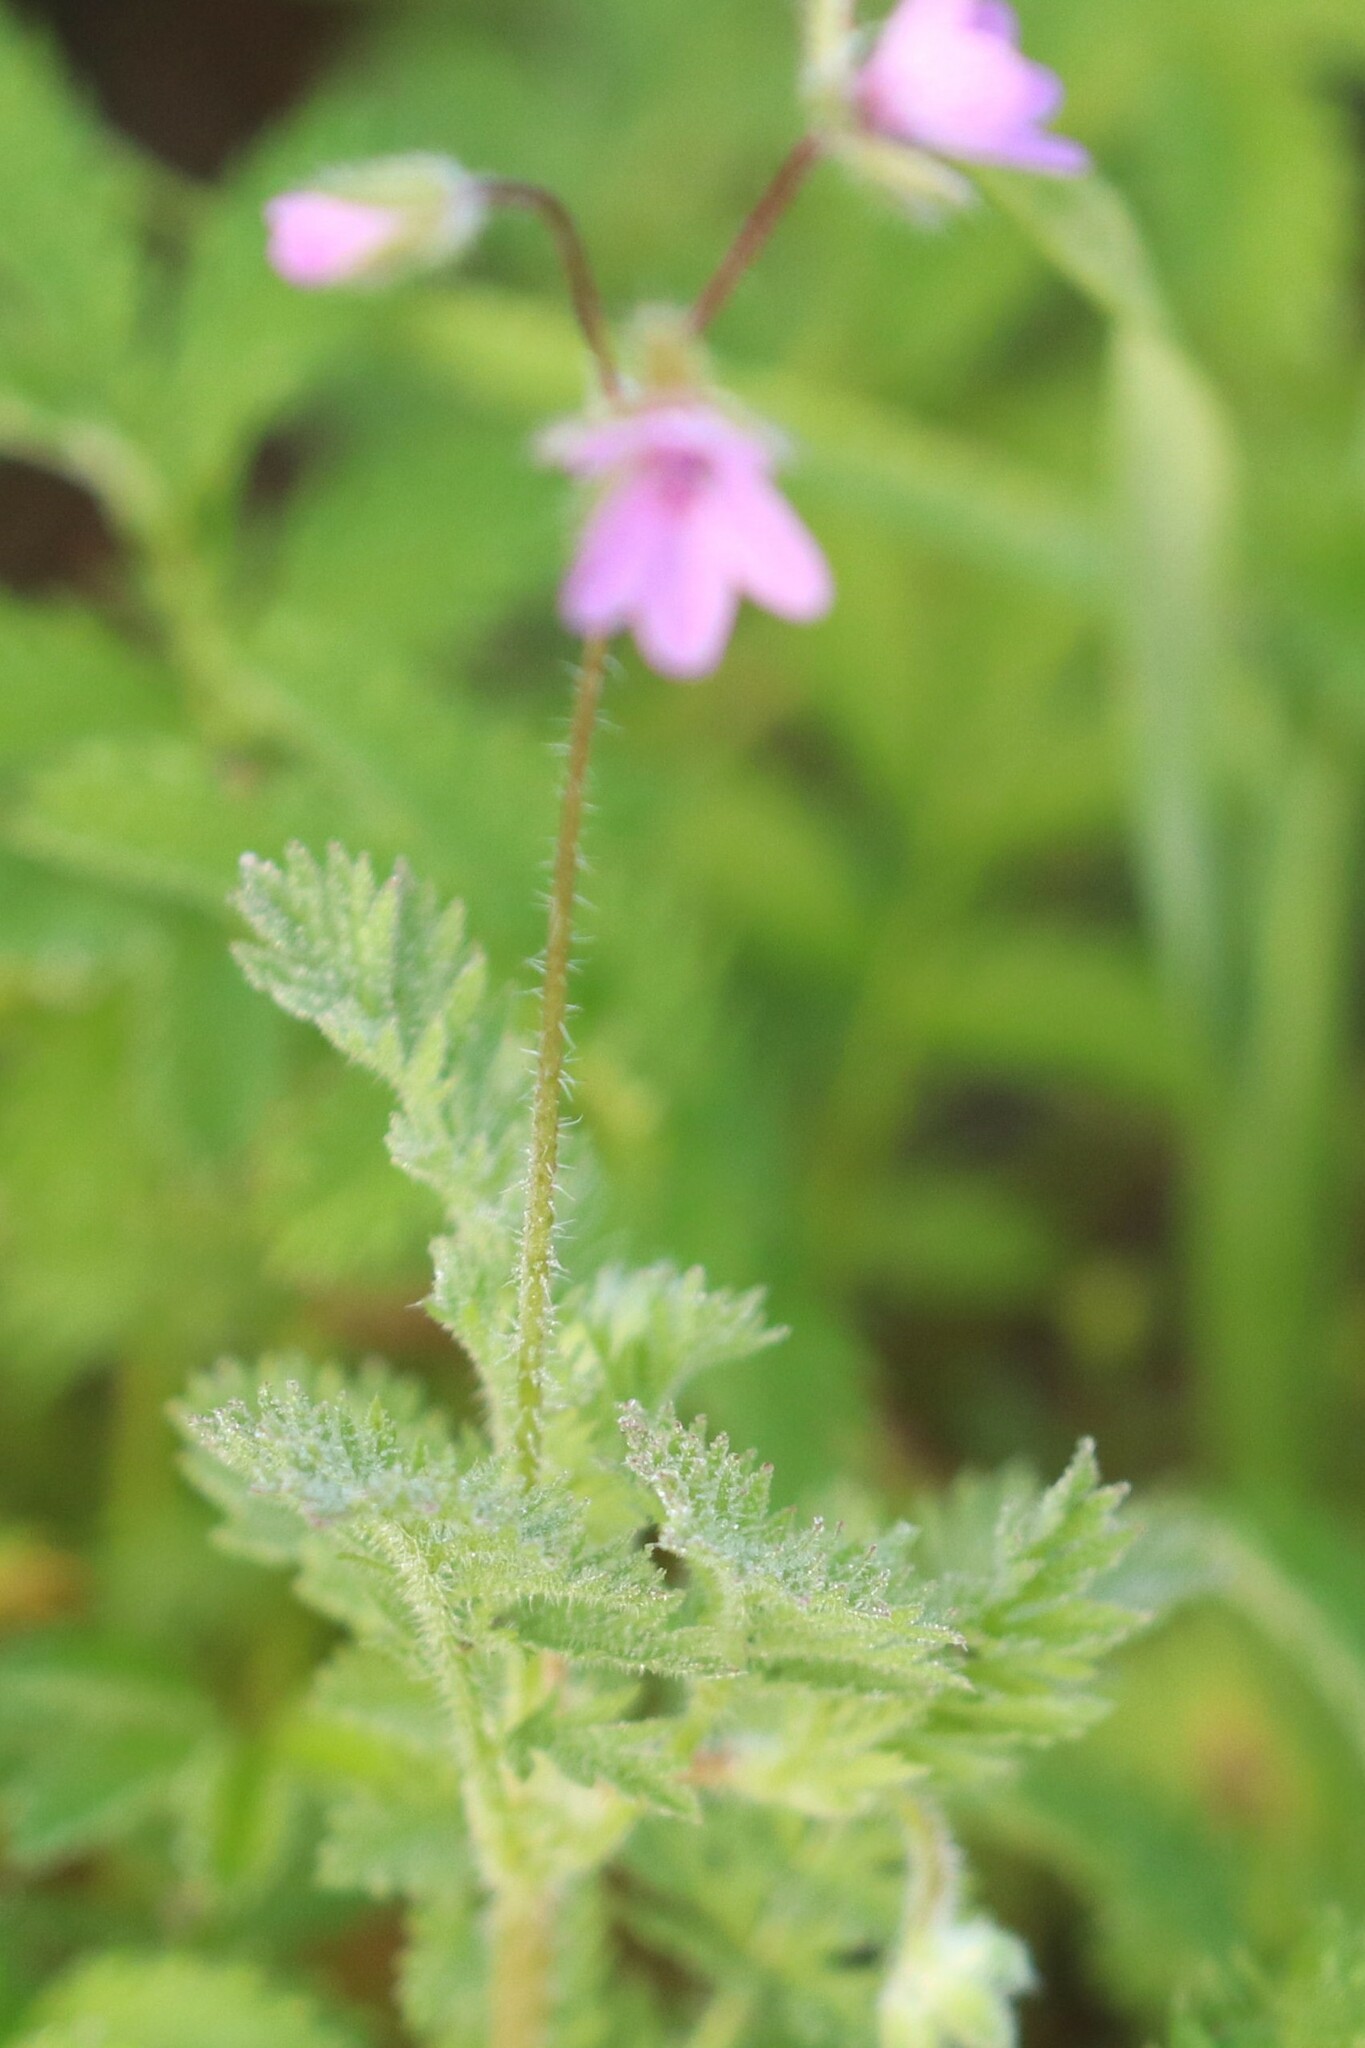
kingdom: Plantae
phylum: Tracheophyta
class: Magnoliopsida
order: Geraniales
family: Geraniaceae
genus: Erodium
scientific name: Erodium cicutarium
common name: Common stork's-bill
